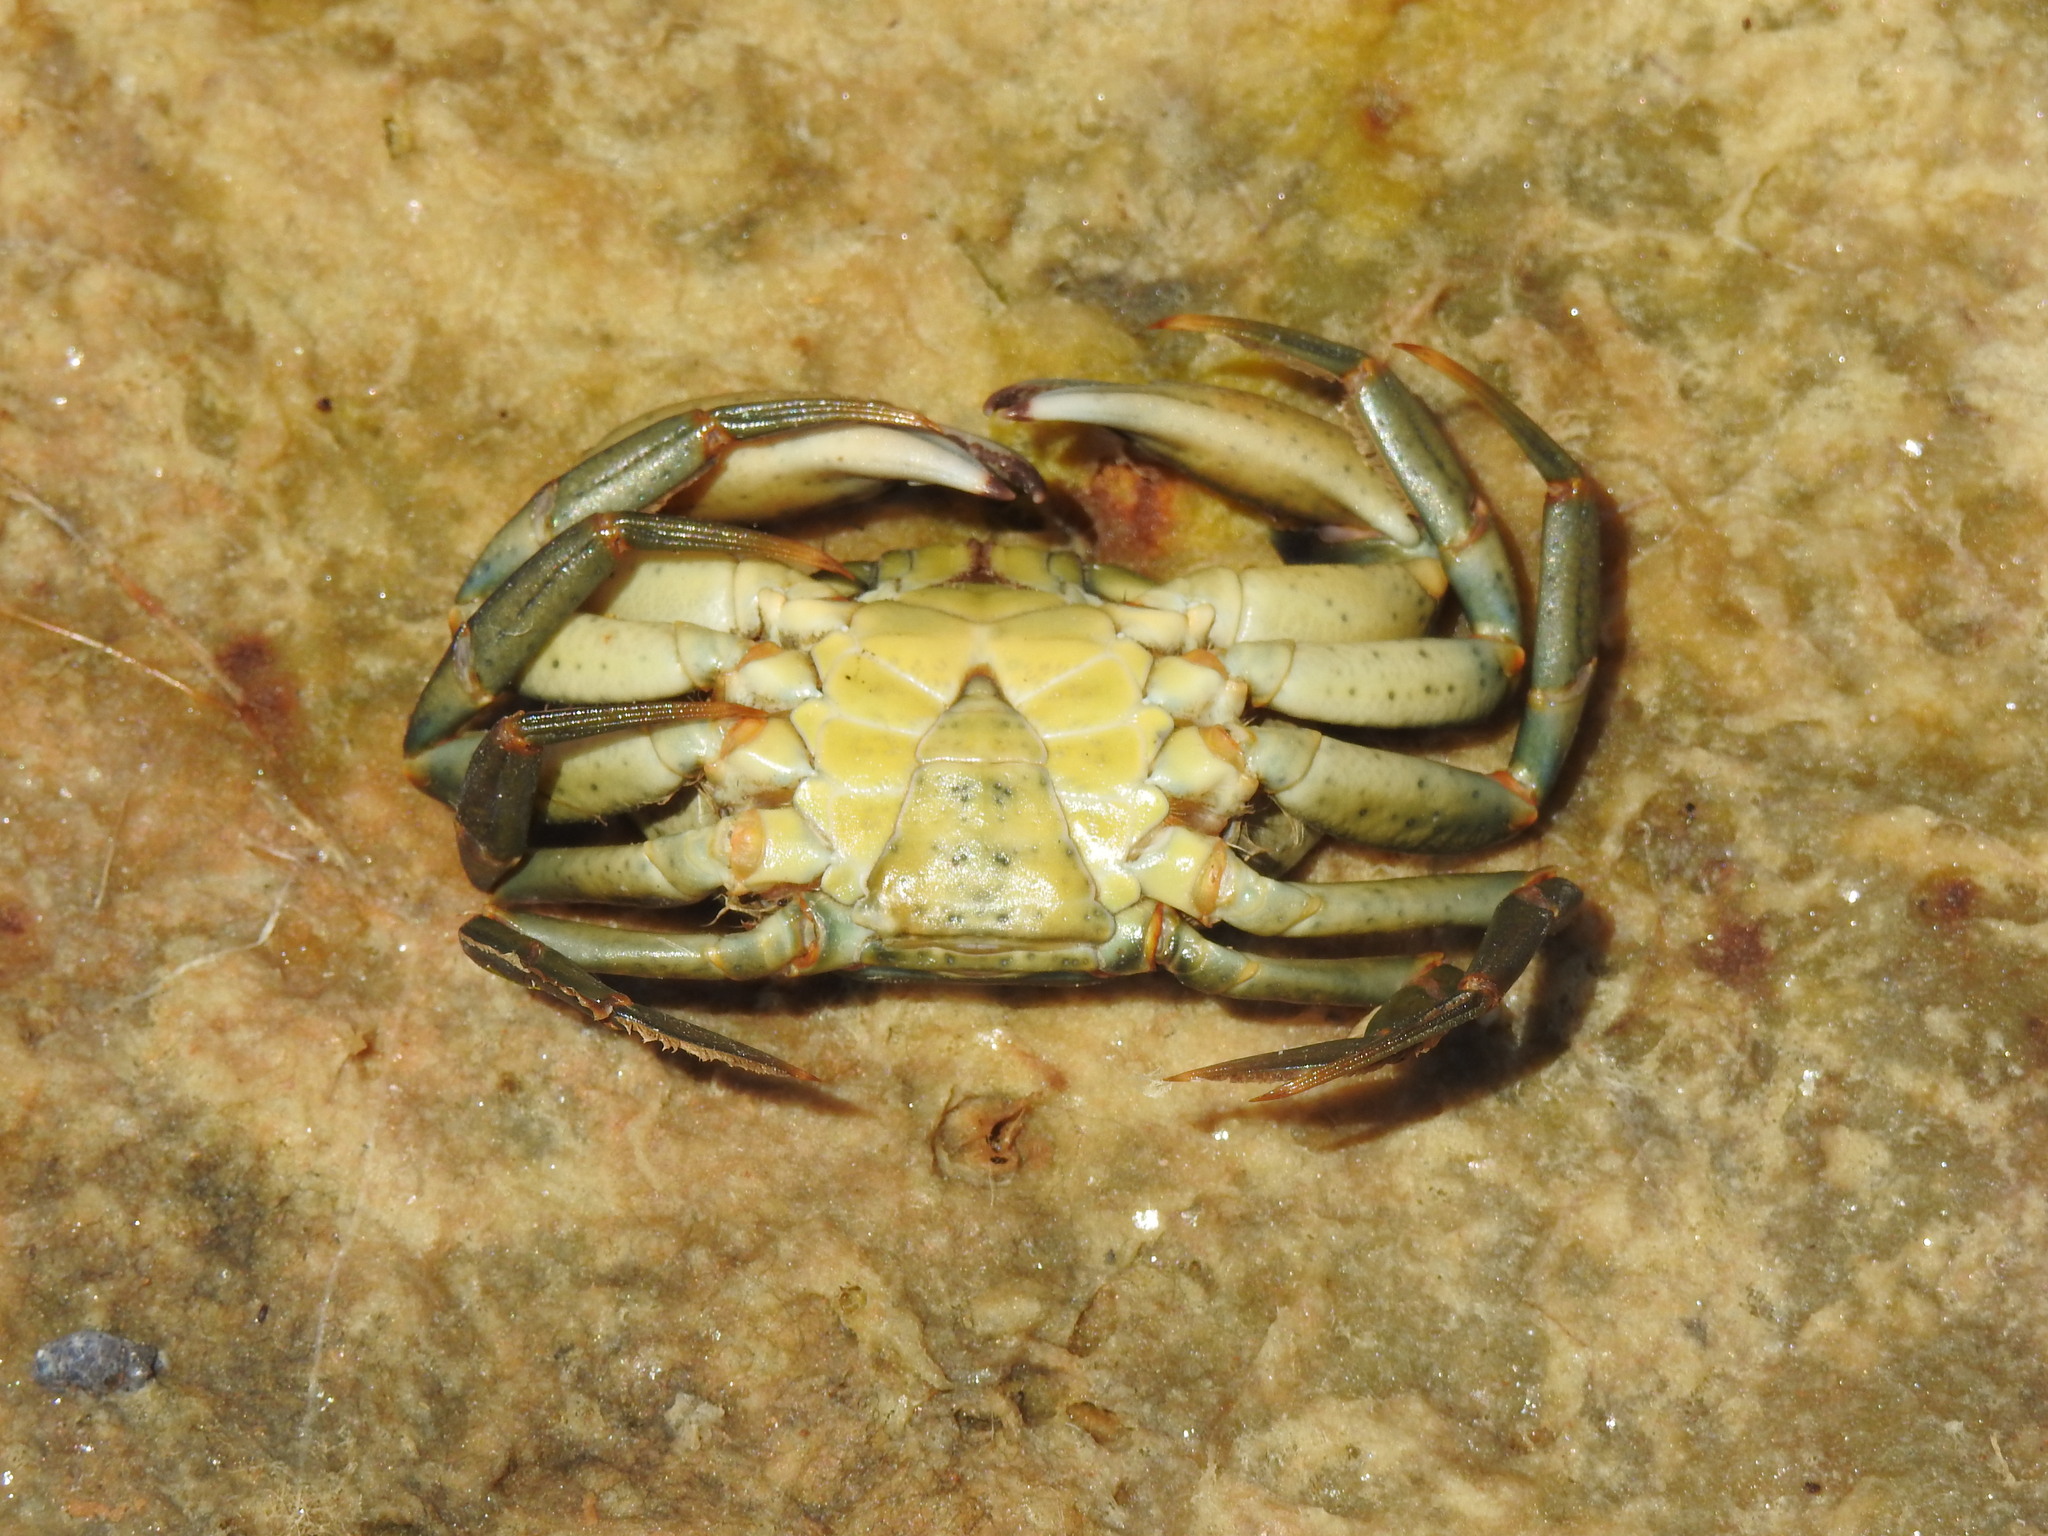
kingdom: Animalia
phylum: Arthropoda
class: Malacostraca
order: Decapoda
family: Carcinidae
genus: Carcinus
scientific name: Carcinus maenas
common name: European green crab
